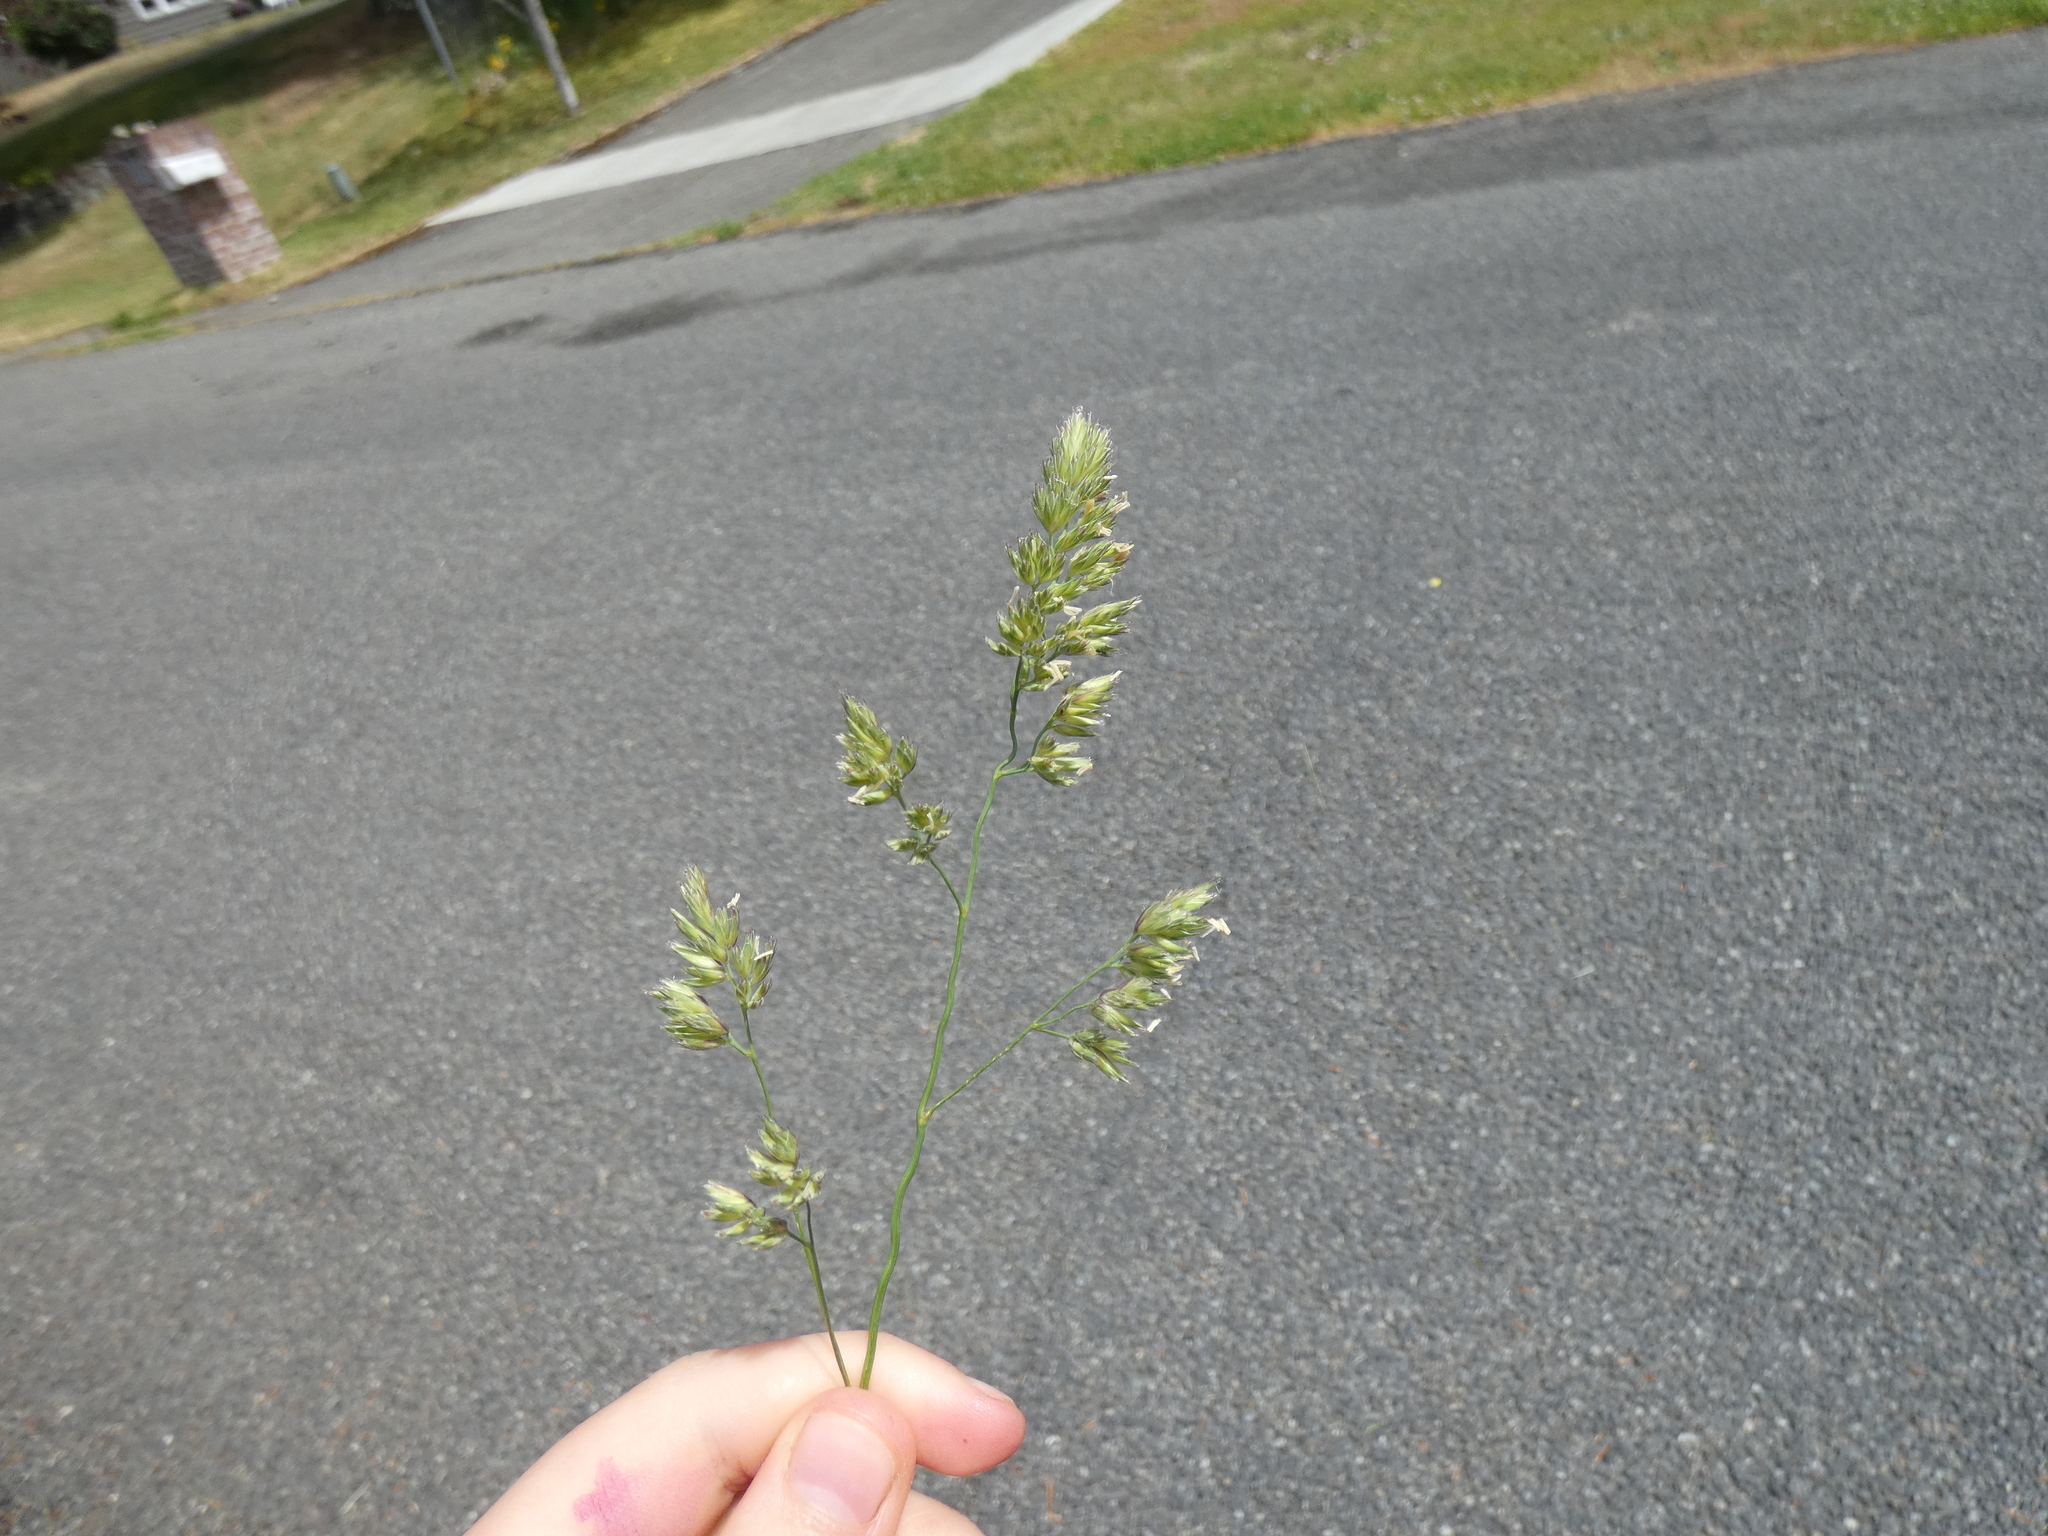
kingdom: Plantae
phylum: Tracheophyta
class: Liliopsida
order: Poales
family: Poaceae
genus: Dactylis
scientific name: Dactylis glomerata
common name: Orchardgrass
